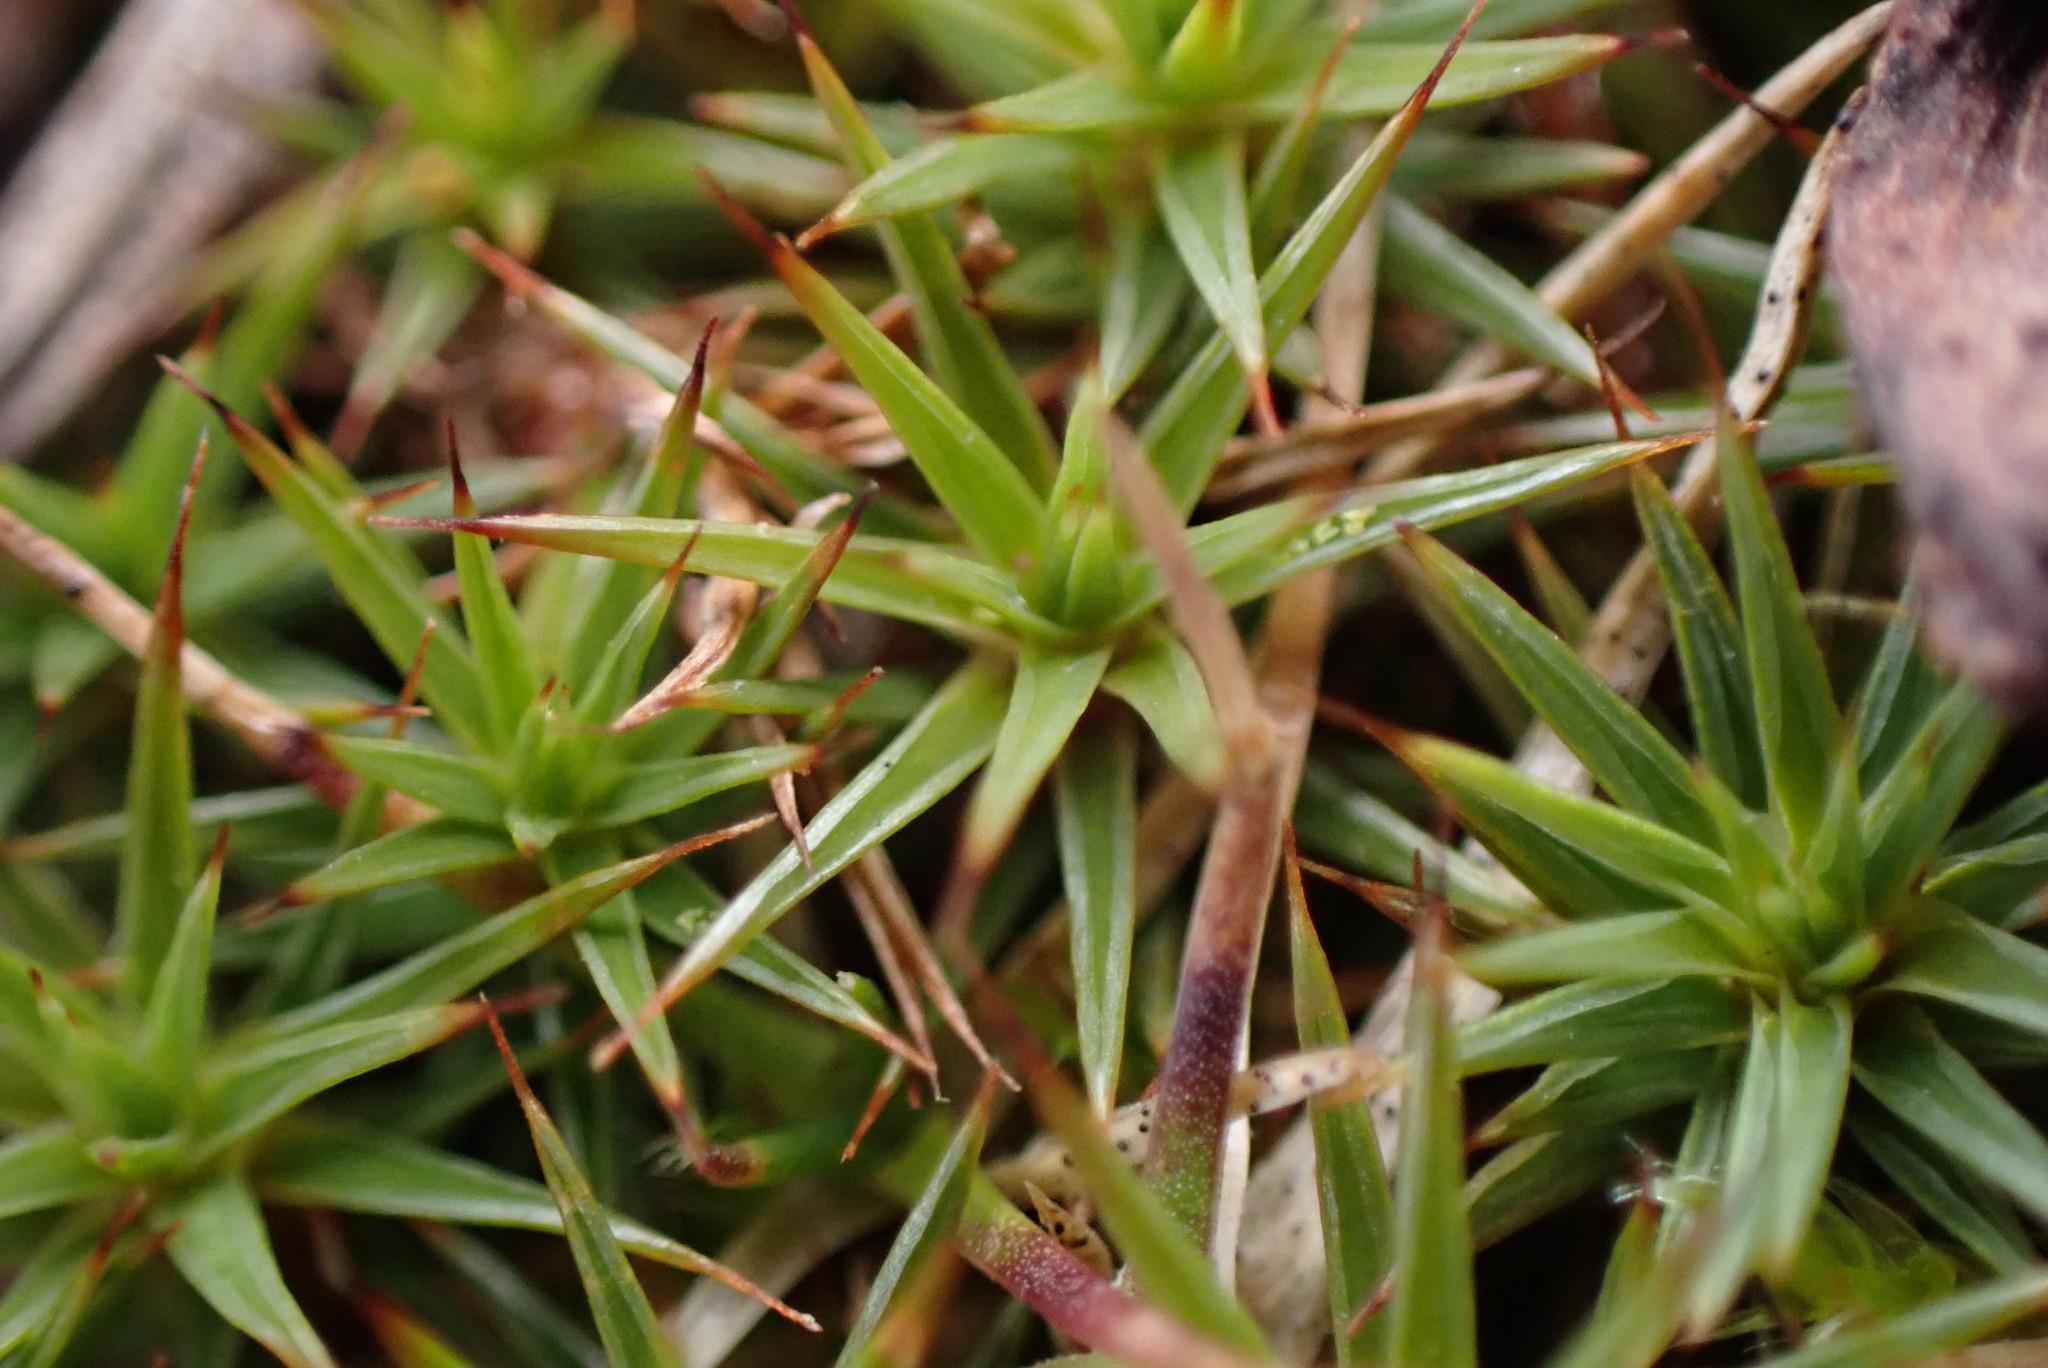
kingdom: Plantae
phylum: Bryophyta
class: Polytrichopsida
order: Polytrichales
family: Polytrichaceae
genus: Polytrichum
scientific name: Polytrichum juniperinum
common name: Juniper haircap moss
